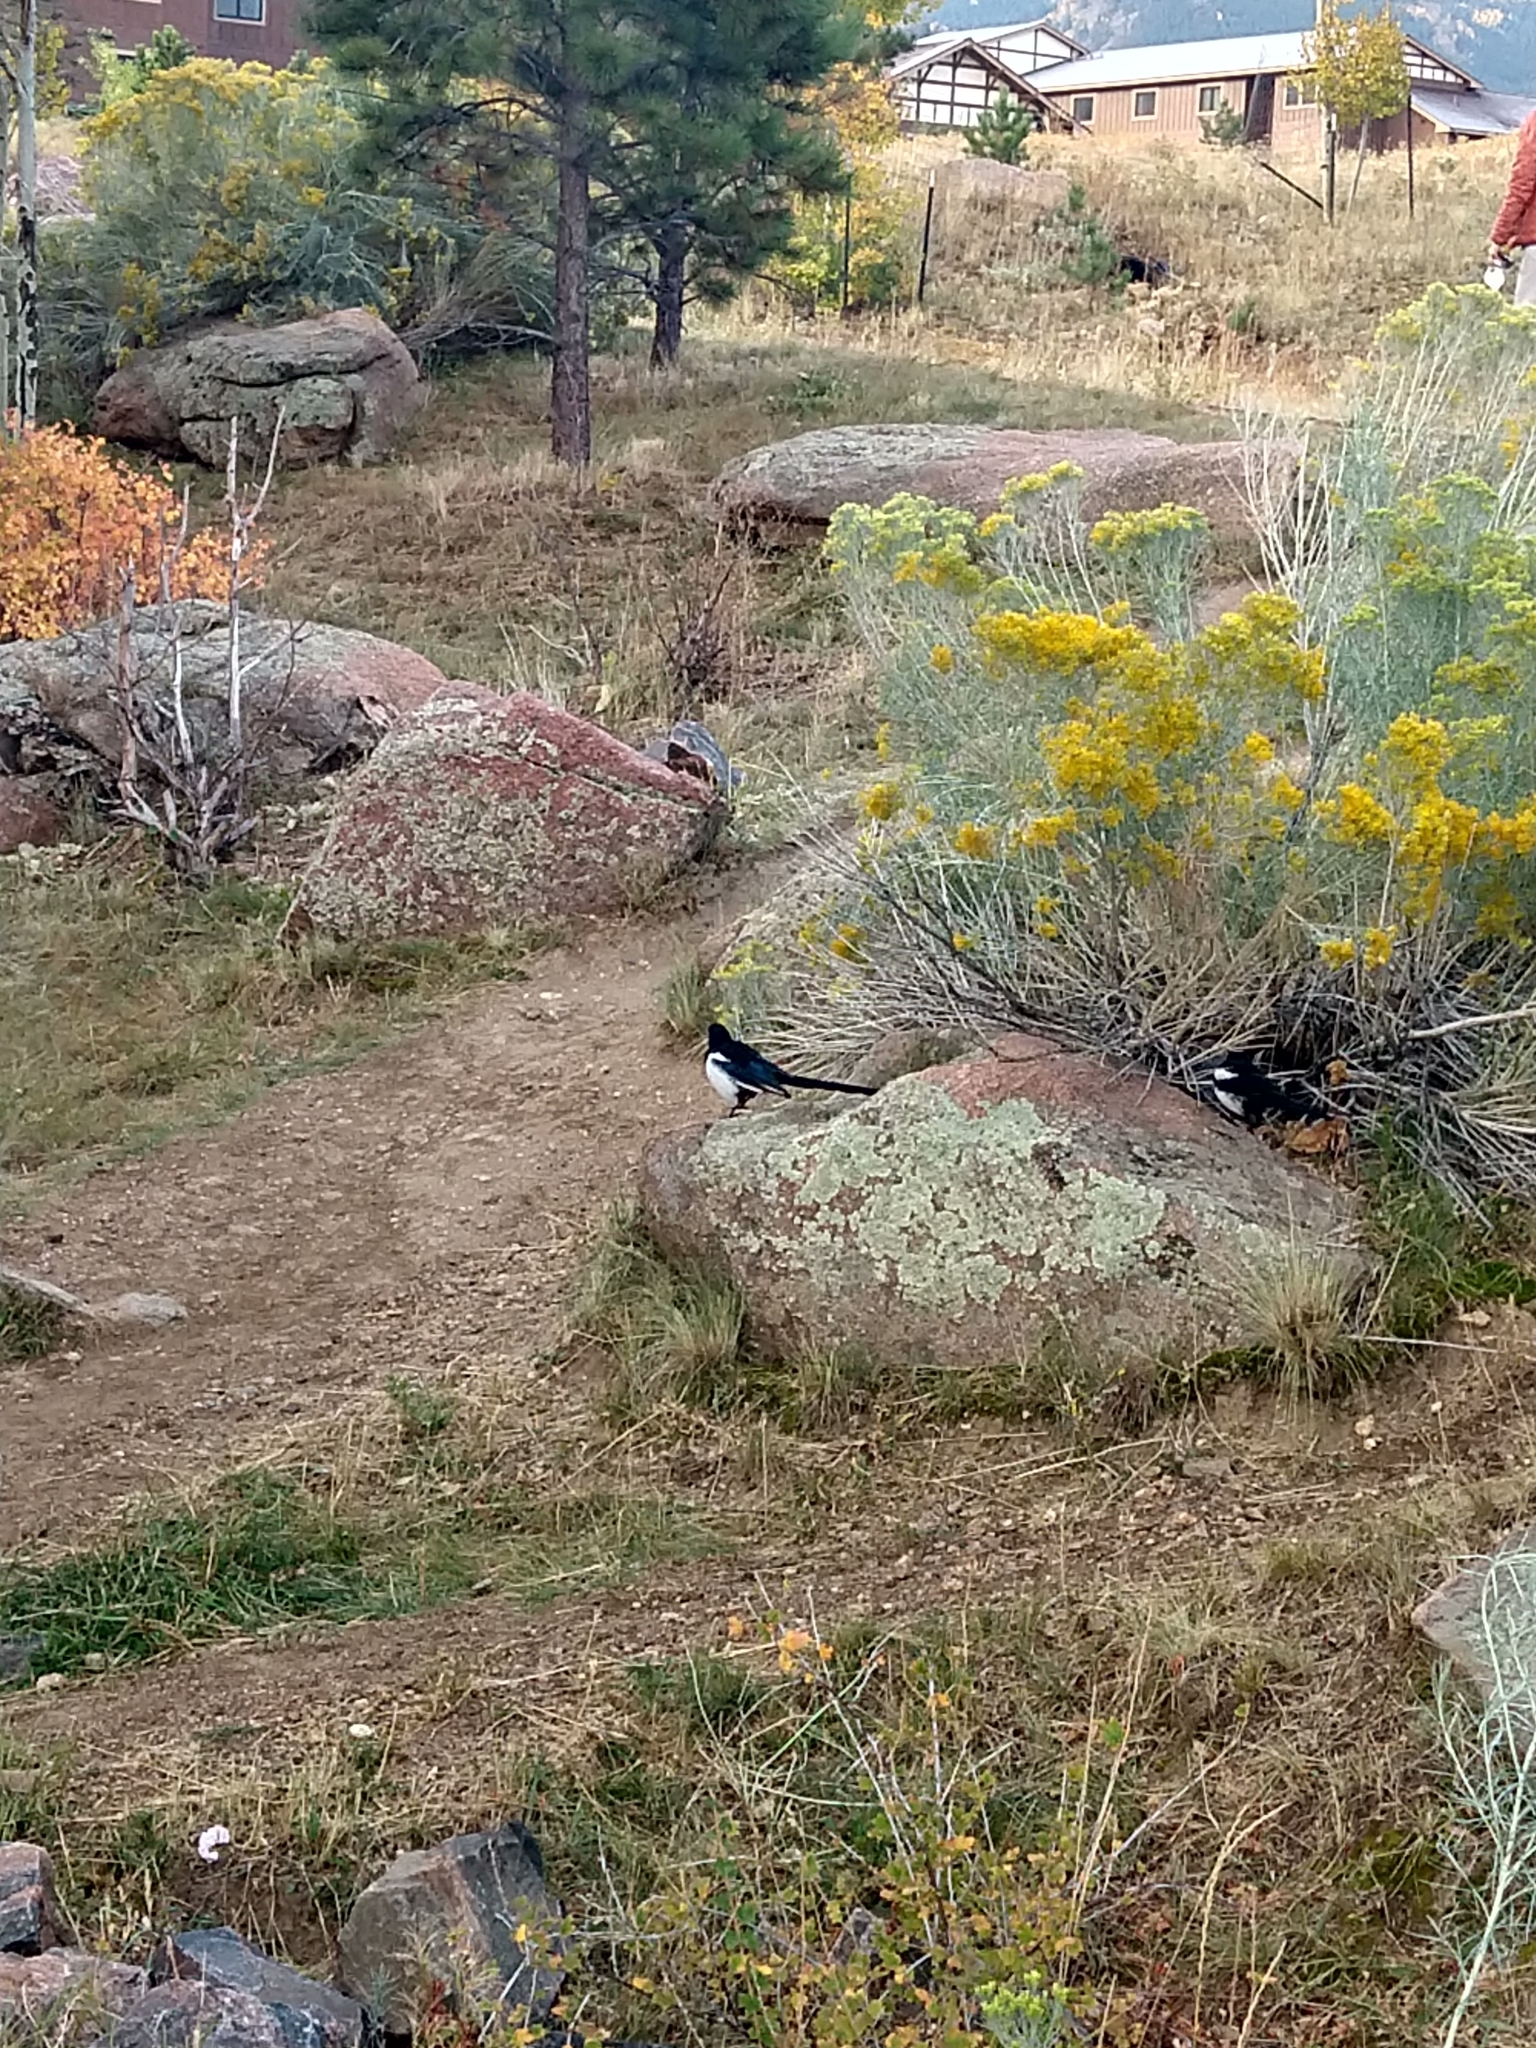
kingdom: Animalia
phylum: Chordata
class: Aves
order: Passeriformes
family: Corvidae
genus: Pica
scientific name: Pica hudsonia
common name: Black-billed magpie
